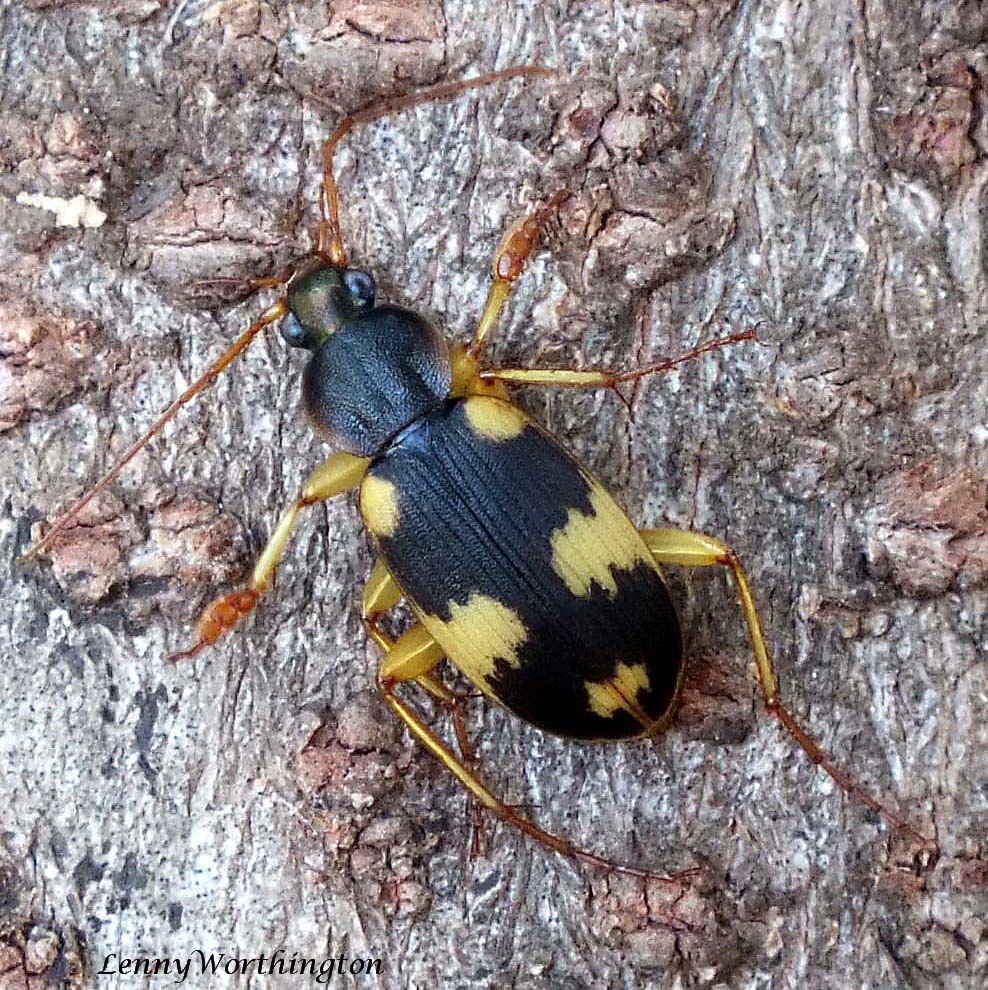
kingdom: Animalia
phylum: Arthropoda
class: Insecta
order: Coleoptera
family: Carabidae
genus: Chlaenius
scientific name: Chlaenius thieleni
